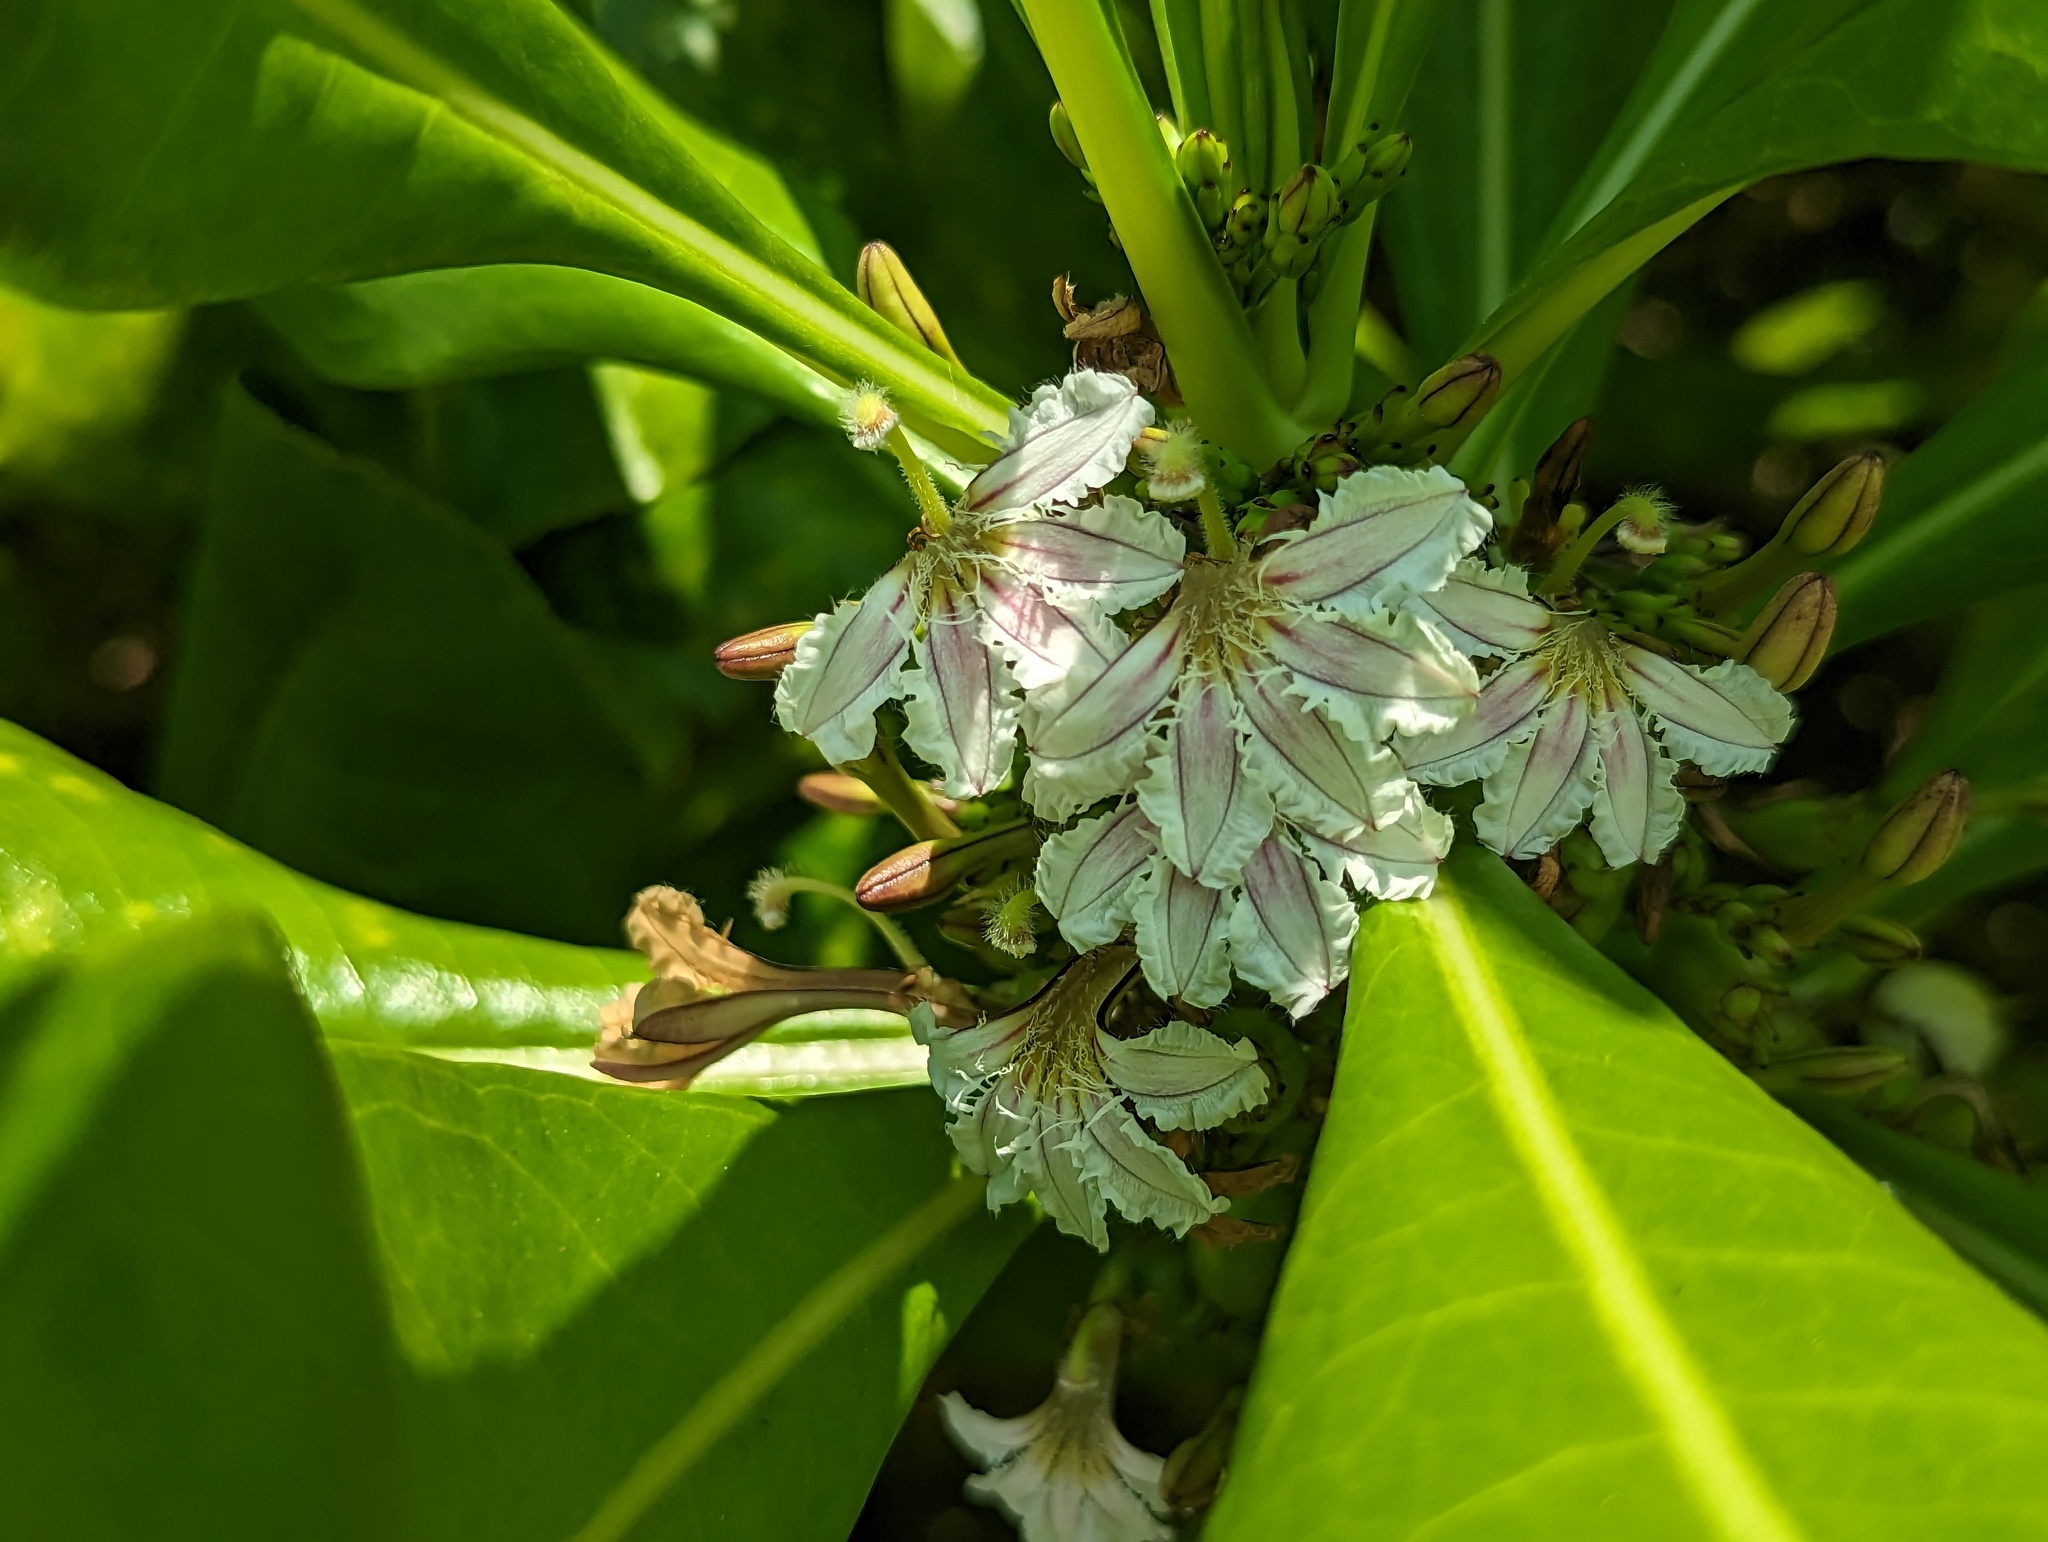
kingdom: Plantae
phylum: Tracheophyta
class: Magnoliopsida
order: Asterales
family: Goodeniaceae
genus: Scaevola
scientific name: Scaevola taccada
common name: Sea lettucetree
